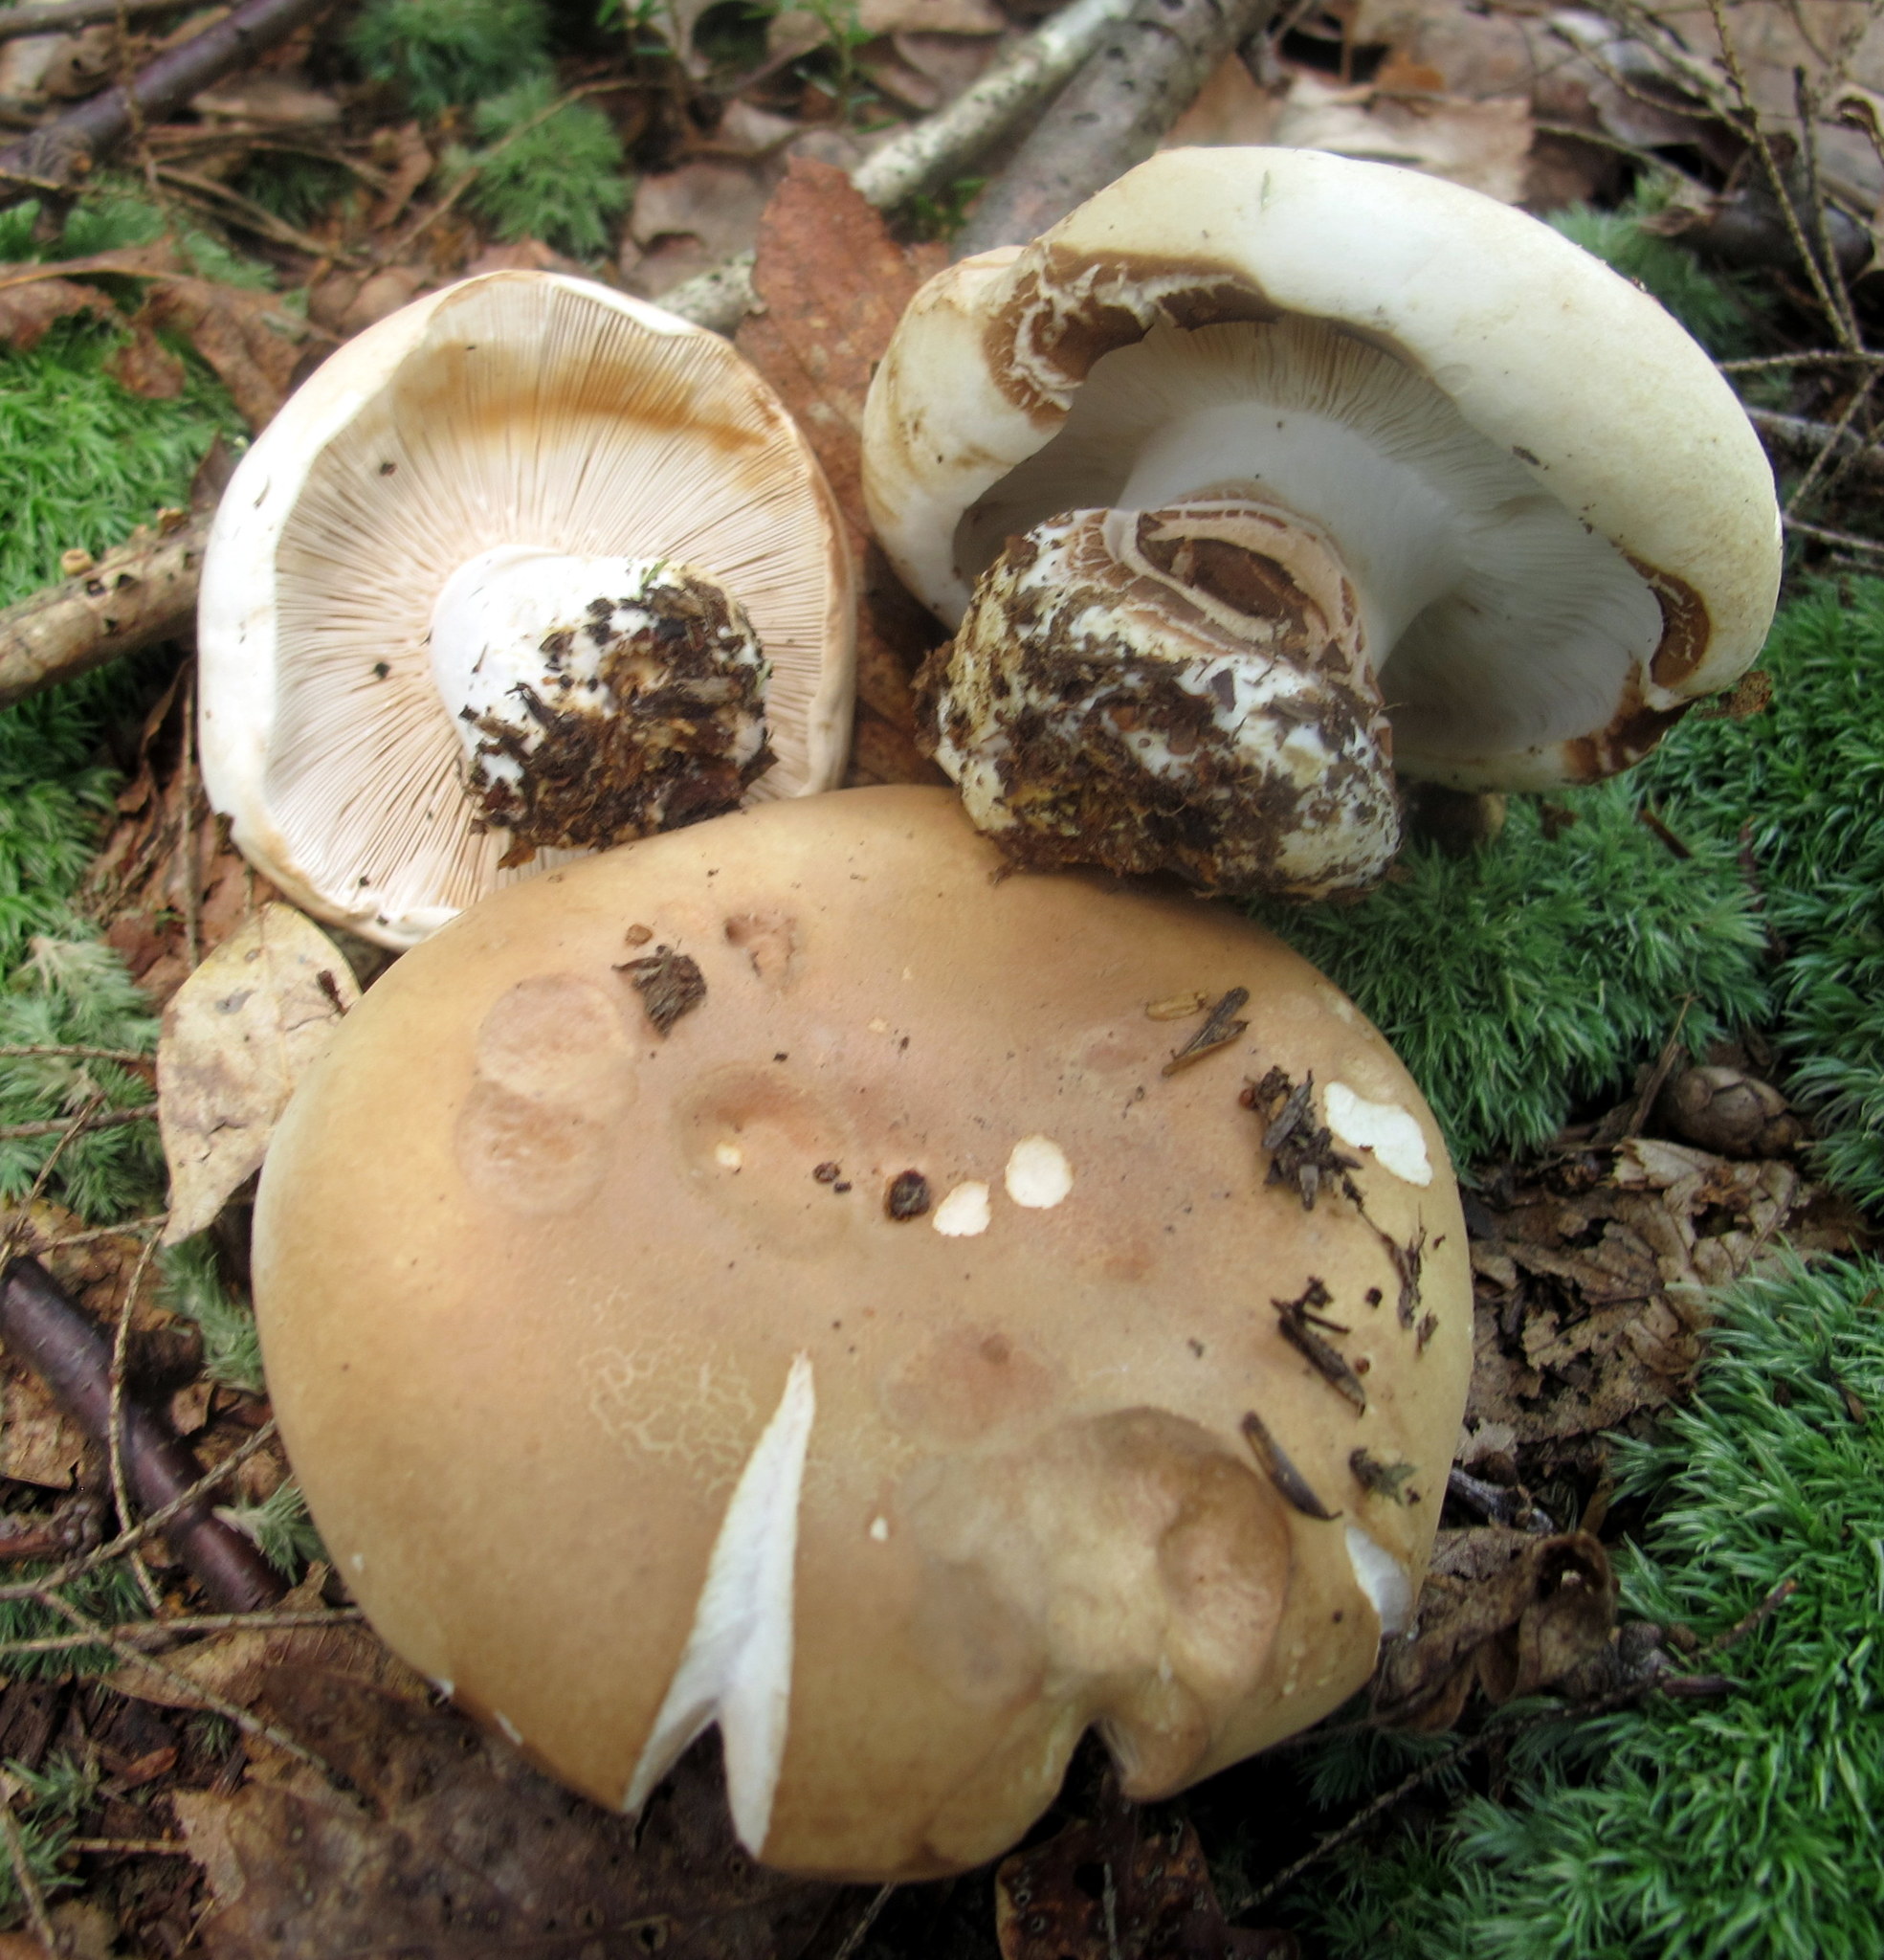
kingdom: Fungi
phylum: Basidiomycota
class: Agaricomycetes
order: Russulales
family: Russulaceae
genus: Russula
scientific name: Russula compacta
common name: Fishbiscuit russula
